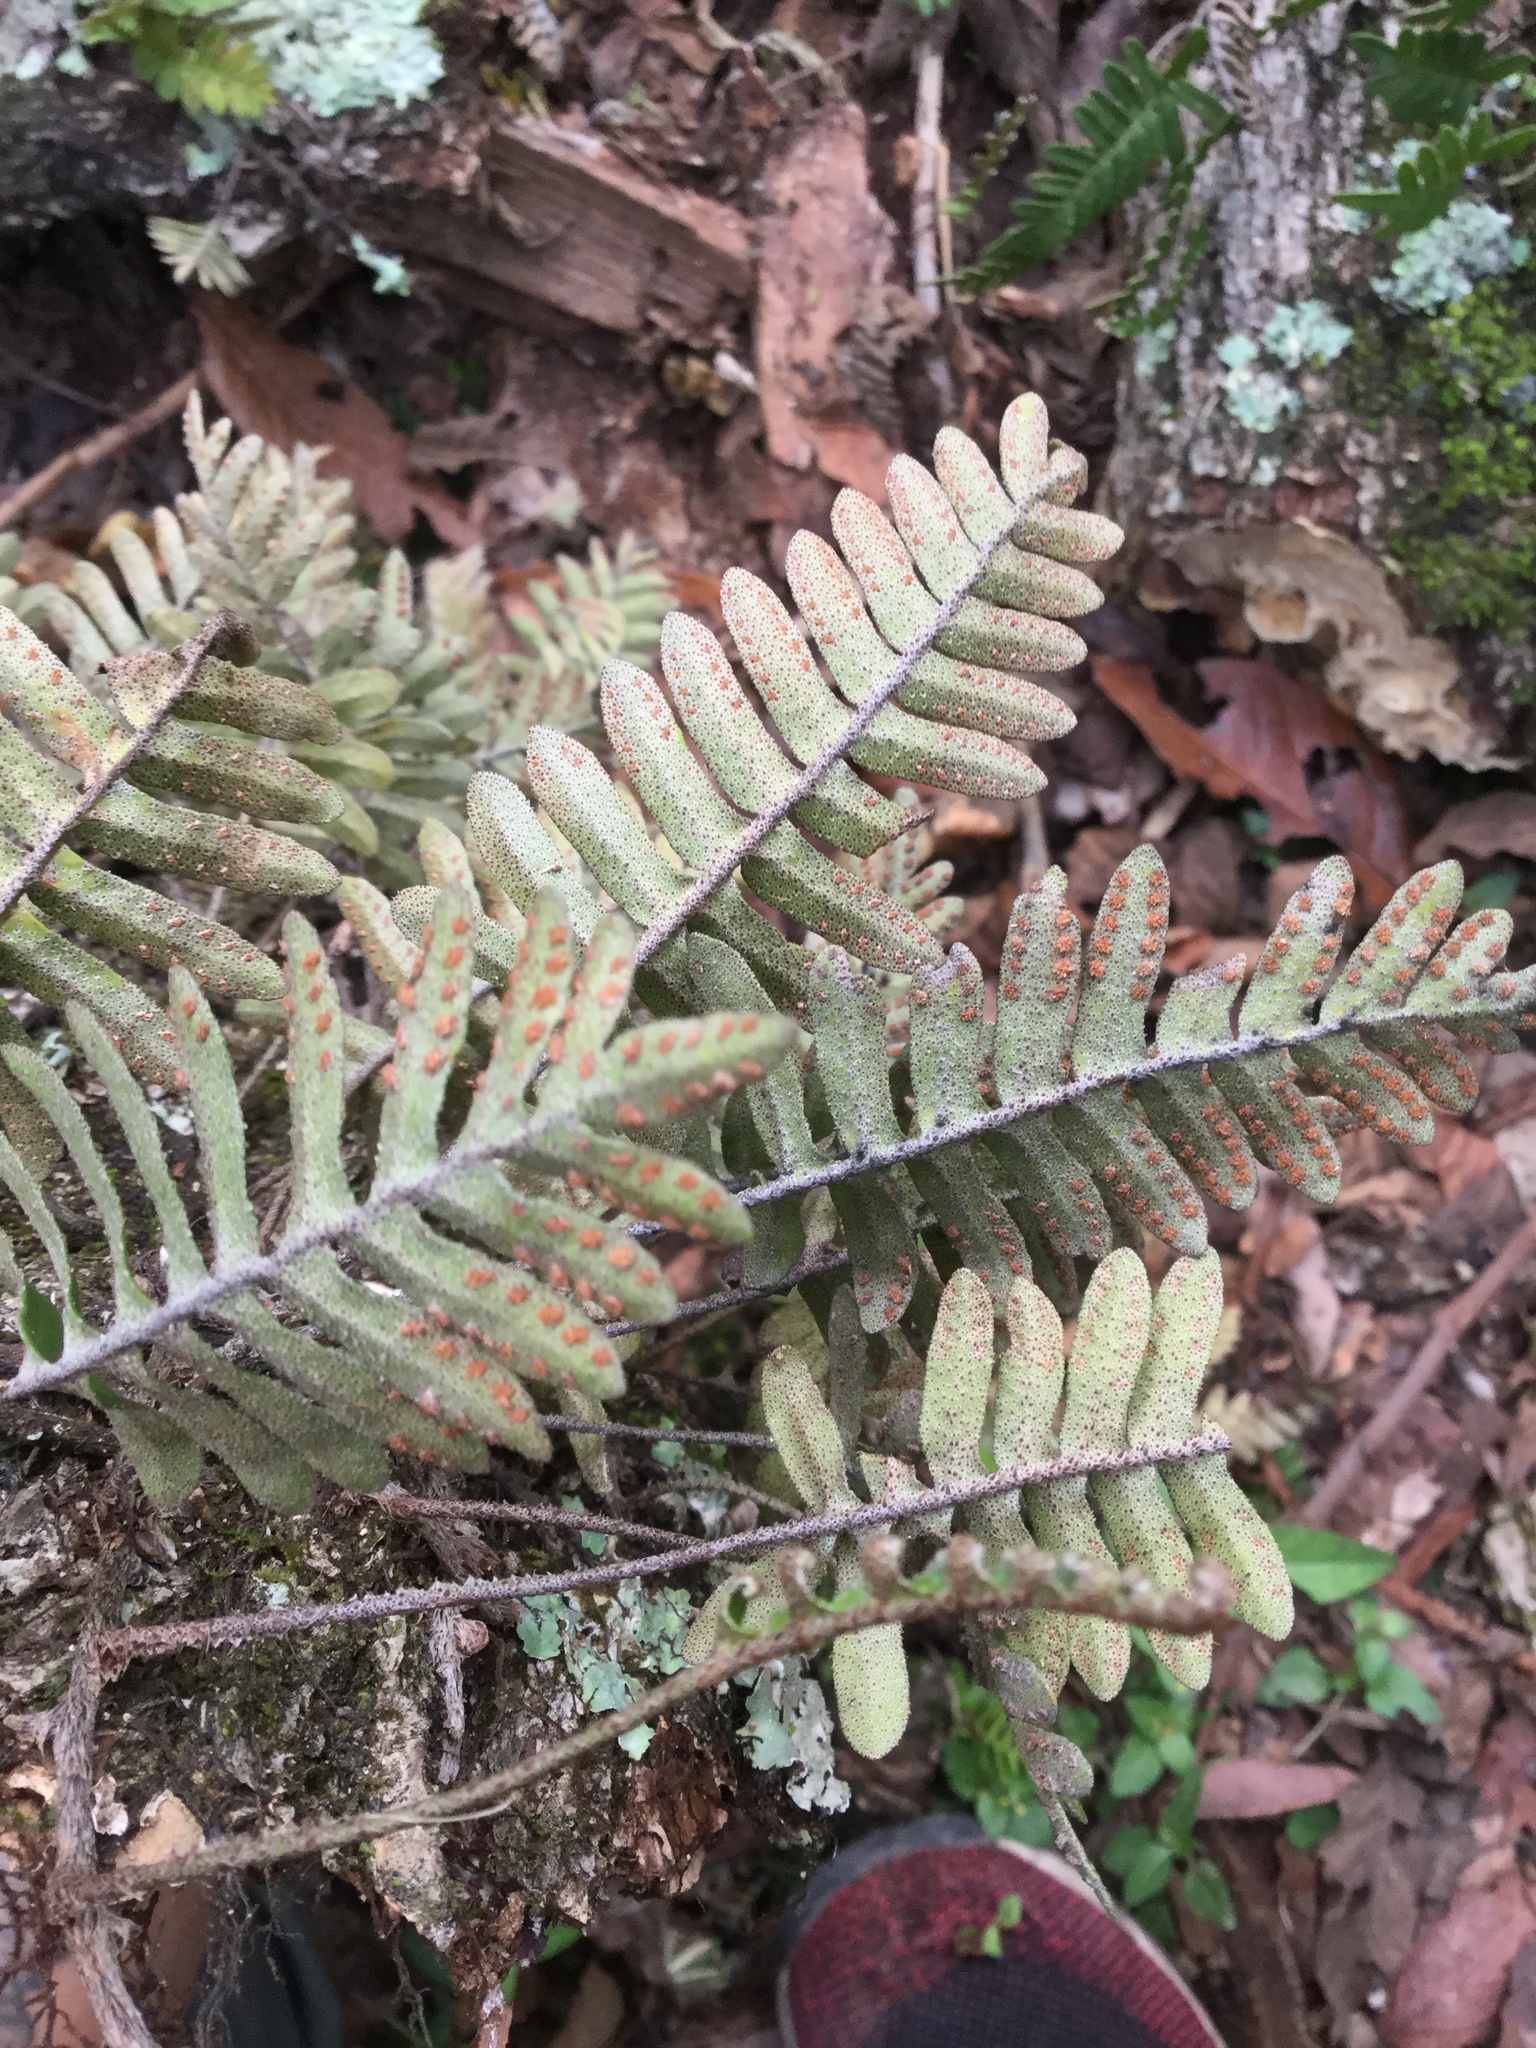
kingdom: Plantae
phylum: Tracheophyta
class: Polypodiopsida
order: Polypodiales
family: Polypodiaceae
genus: Pleopeltis
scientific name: Pleopeltis michauxiana
